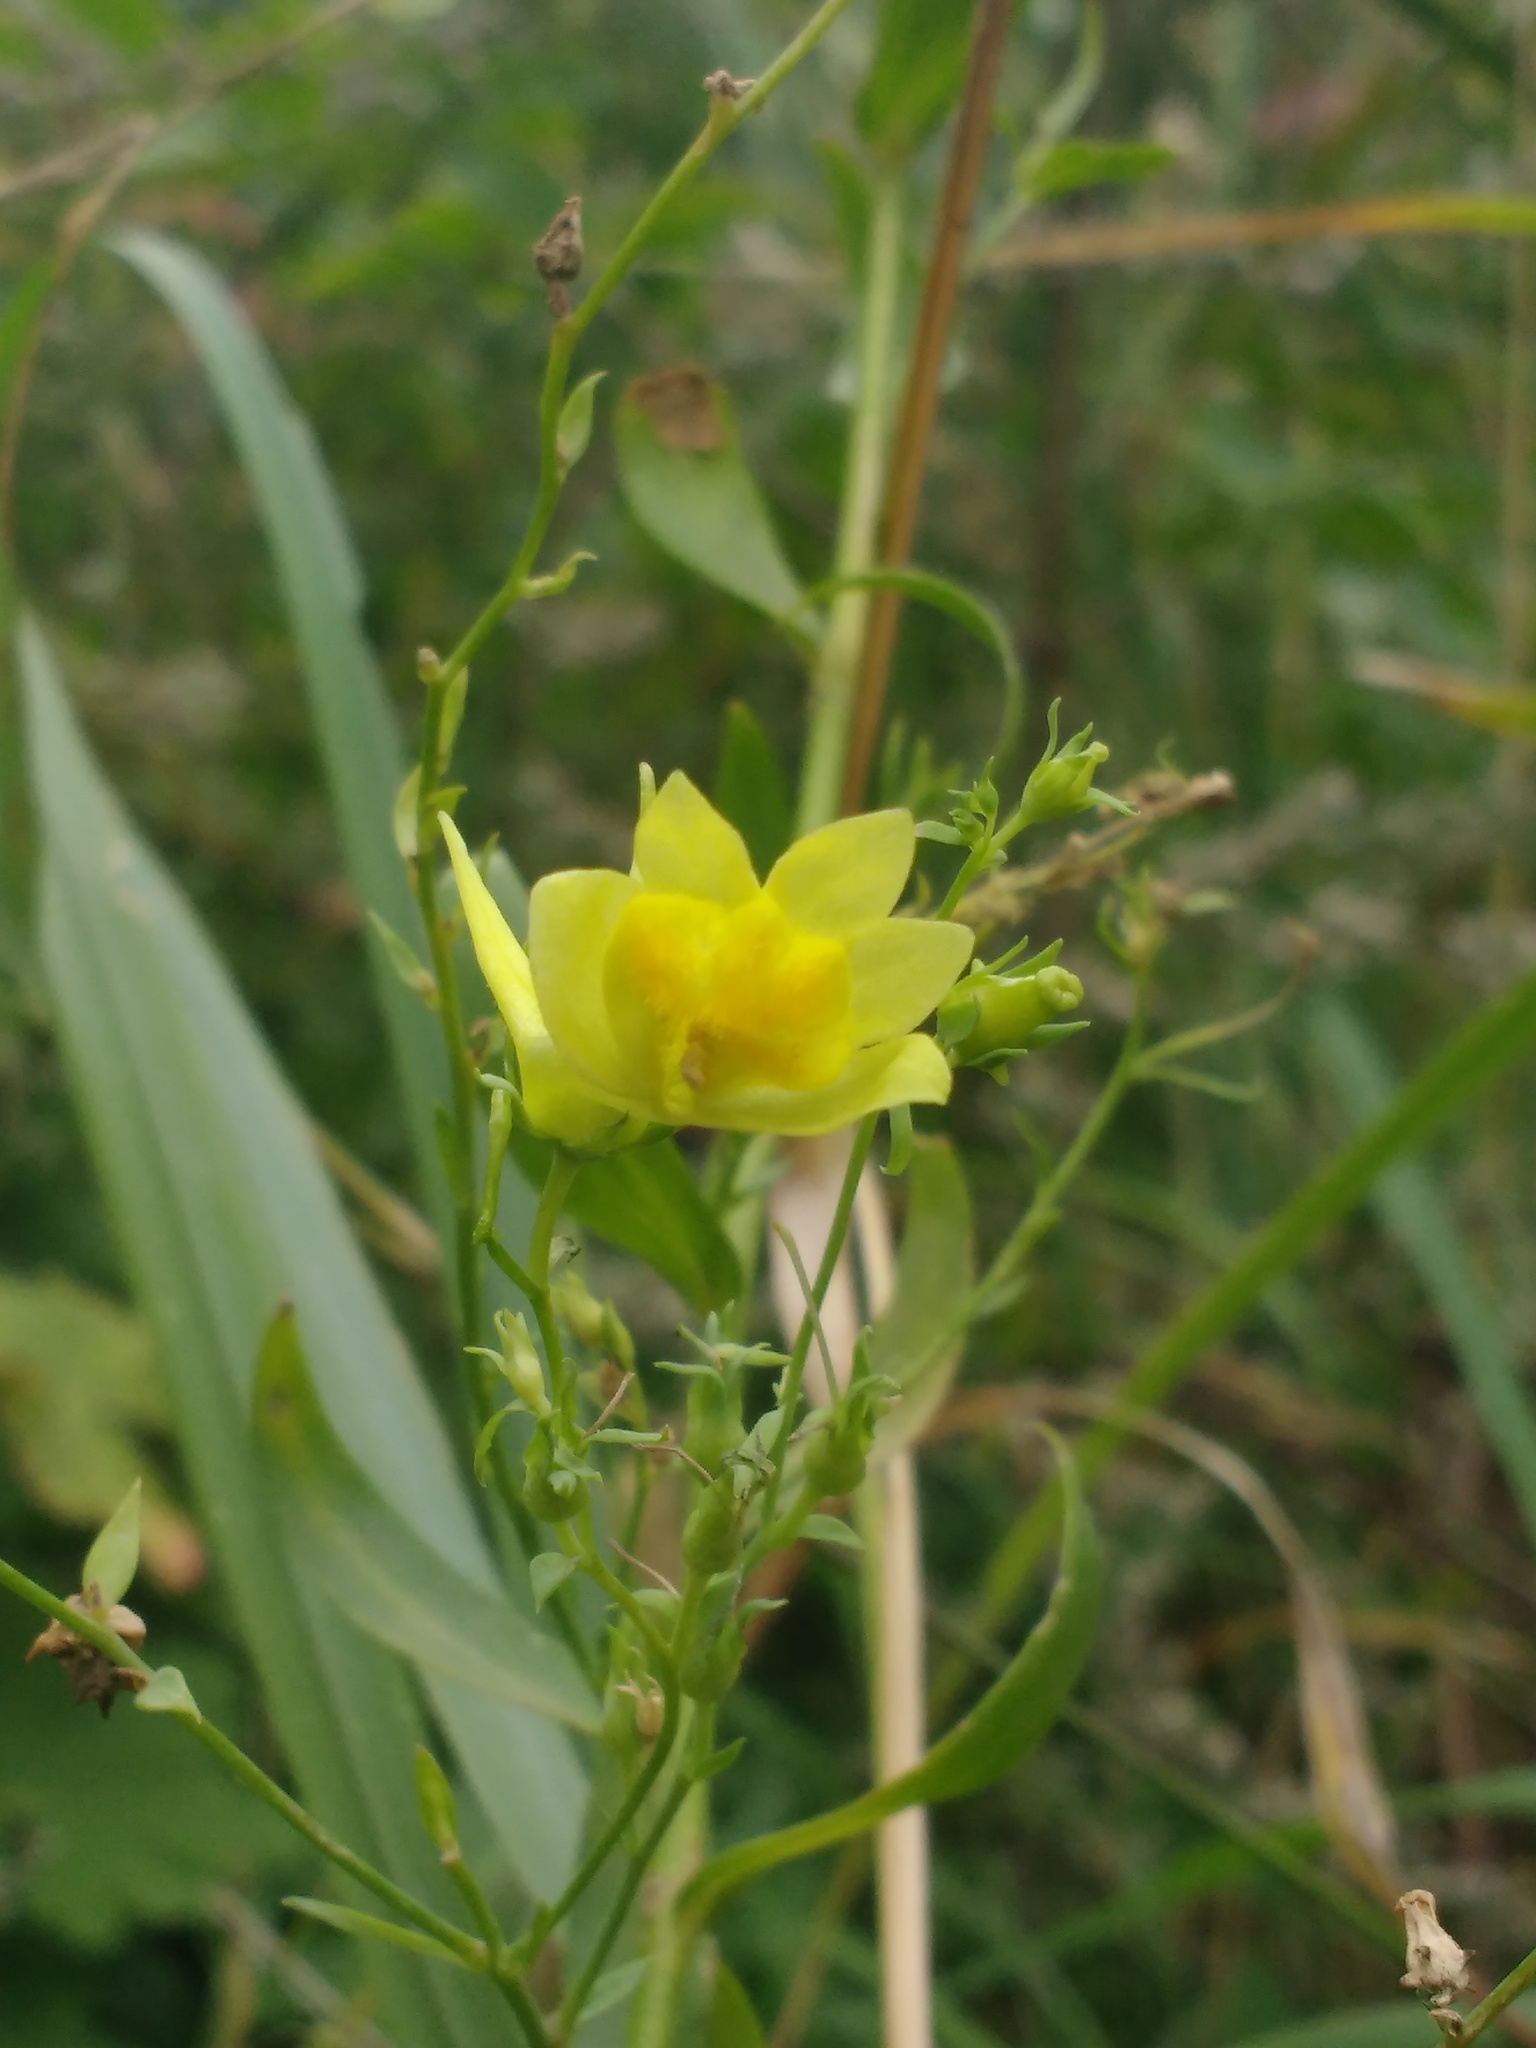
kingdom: Plantae
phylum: Tracheophyta
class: Magnoliopsida
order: Lamiales
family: Plantaginaceae
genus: Linaria
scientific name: Linaria genistifolia
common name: Broomleaf toadflax
